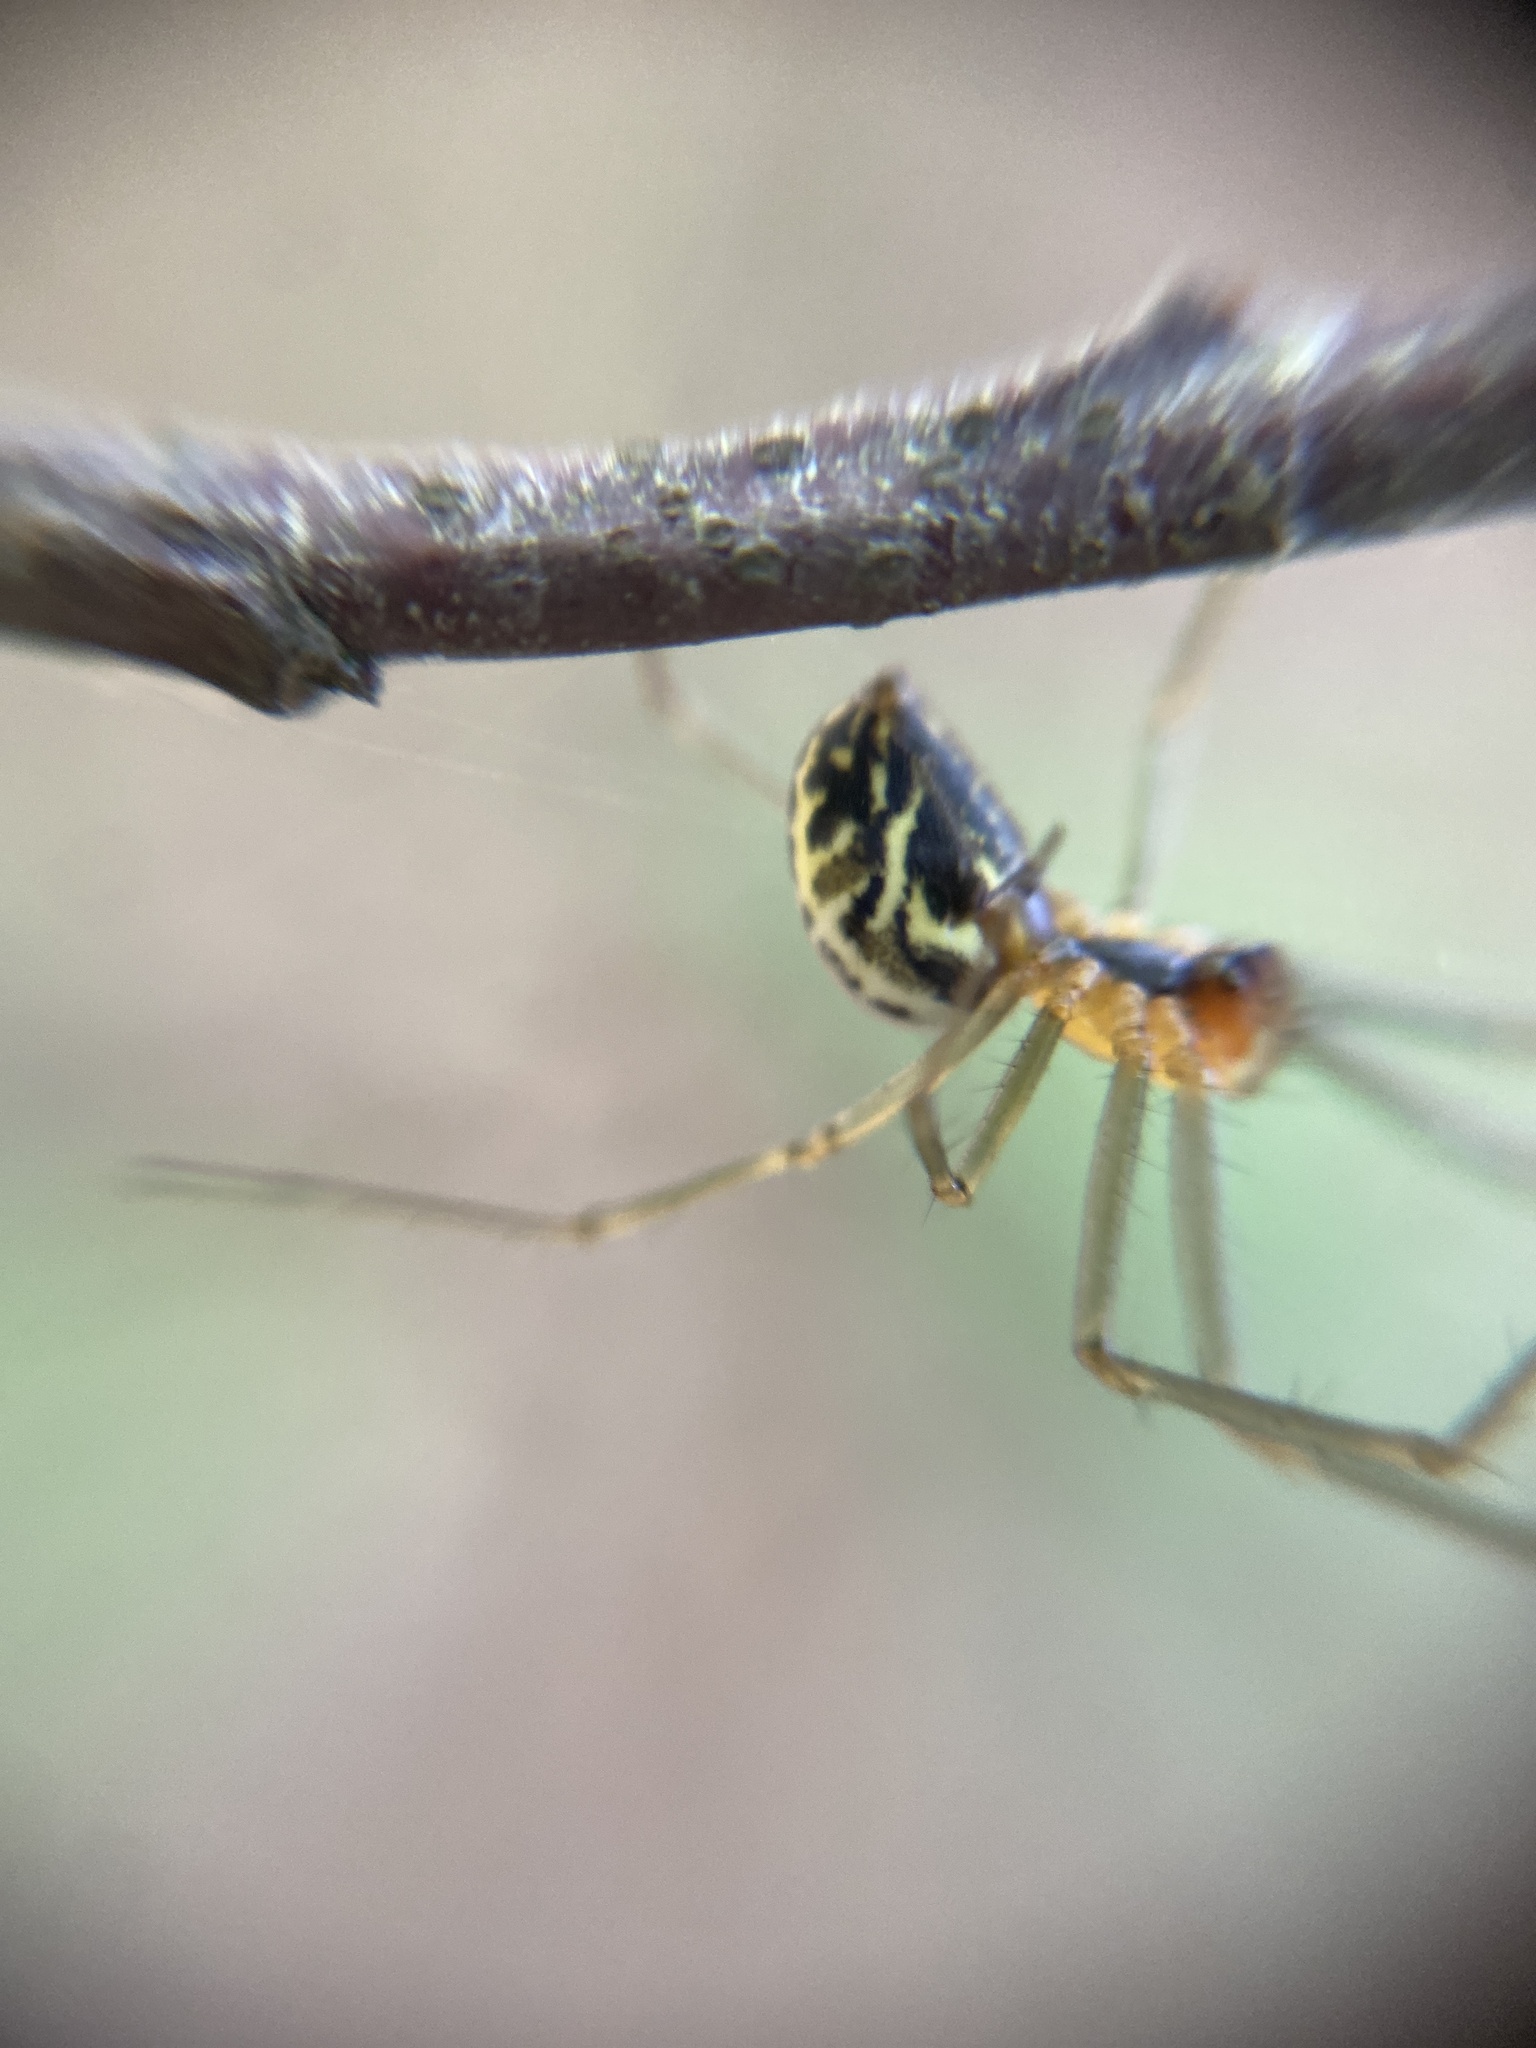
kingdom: Animalia
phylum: Arthropoda
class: Arachnida
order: Araneae
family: Linyphiidae
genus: Neriene
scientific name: Neriene emphana
